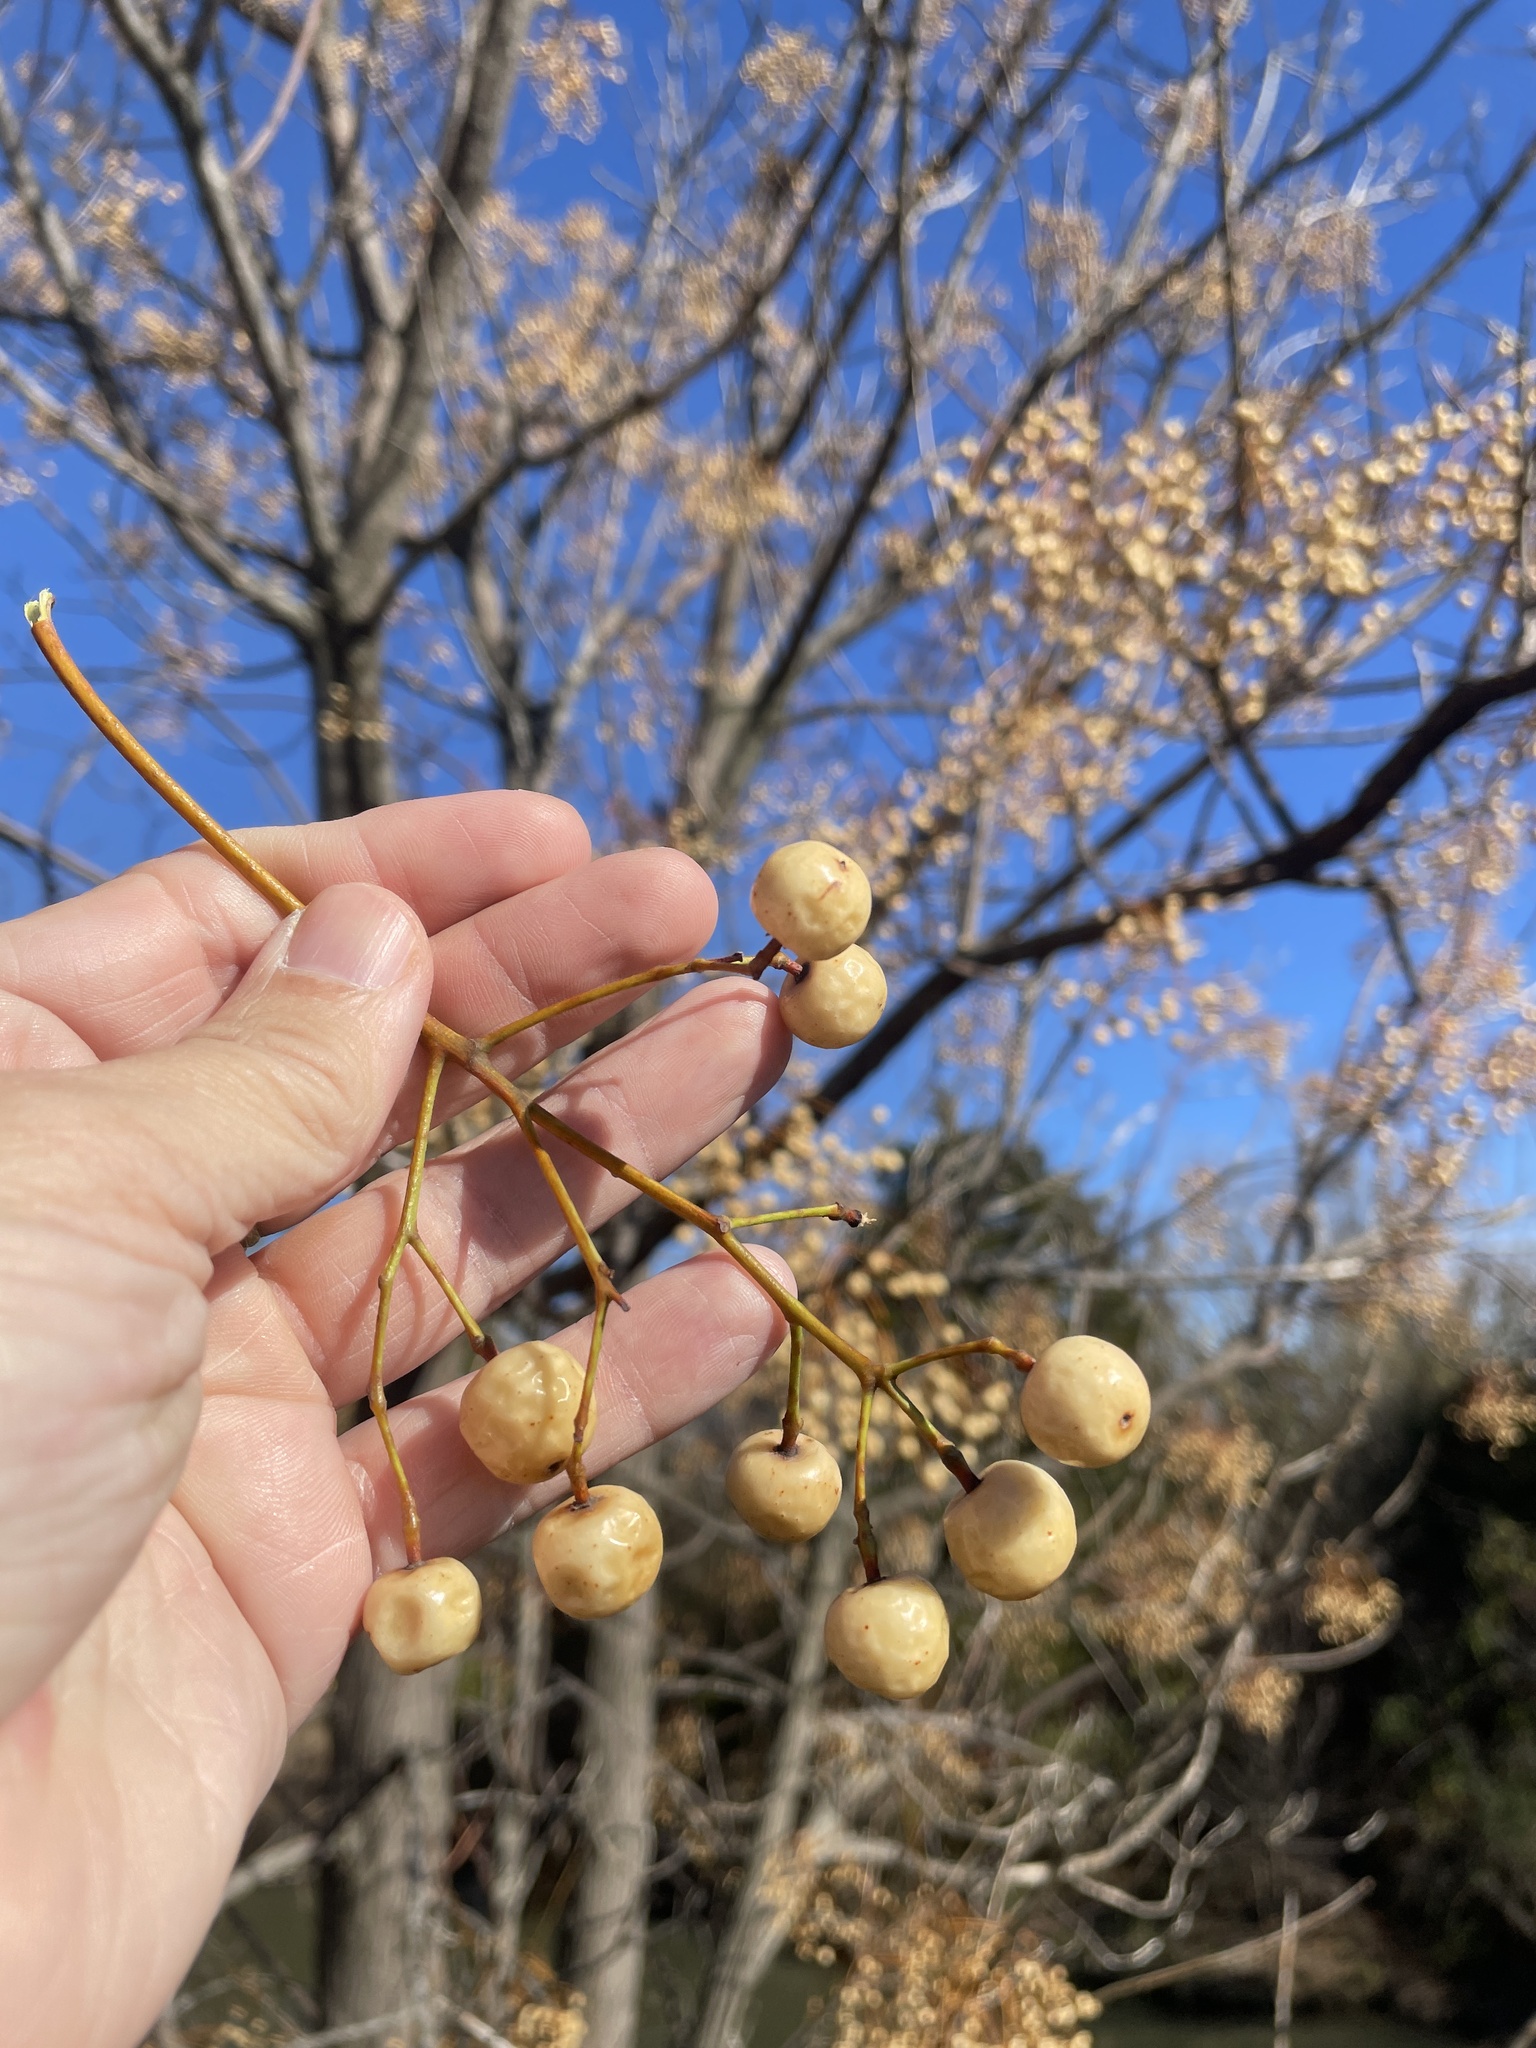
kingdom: Plantae
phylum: Tracheophyta
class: Magnoliopsida
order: Sapindales
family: Meliaceae
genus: Melia
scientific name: Melia azedarach
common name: Chinaberrytree
